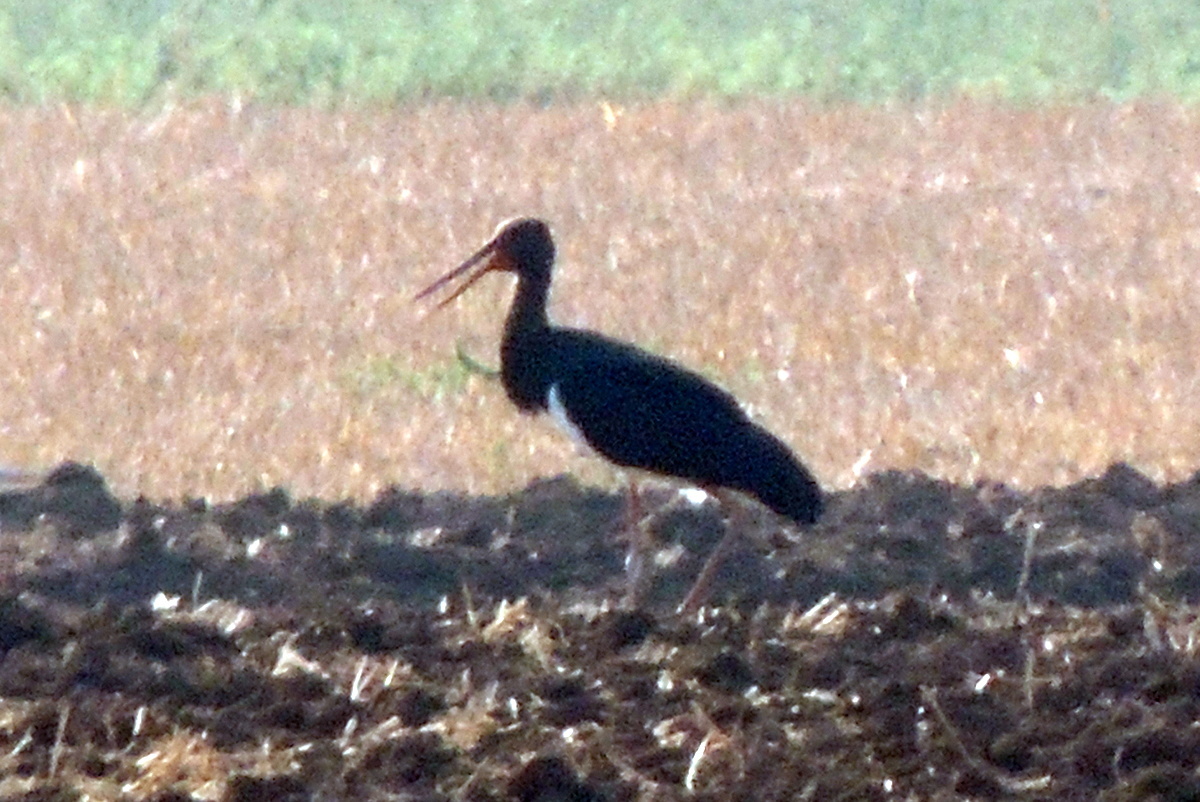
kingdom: Animalia
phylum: Chordata
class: Aves
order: Ciconiiformes
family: Ciconiidae
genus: Ciconia
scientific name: Ciconia nigra
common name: Black stork
